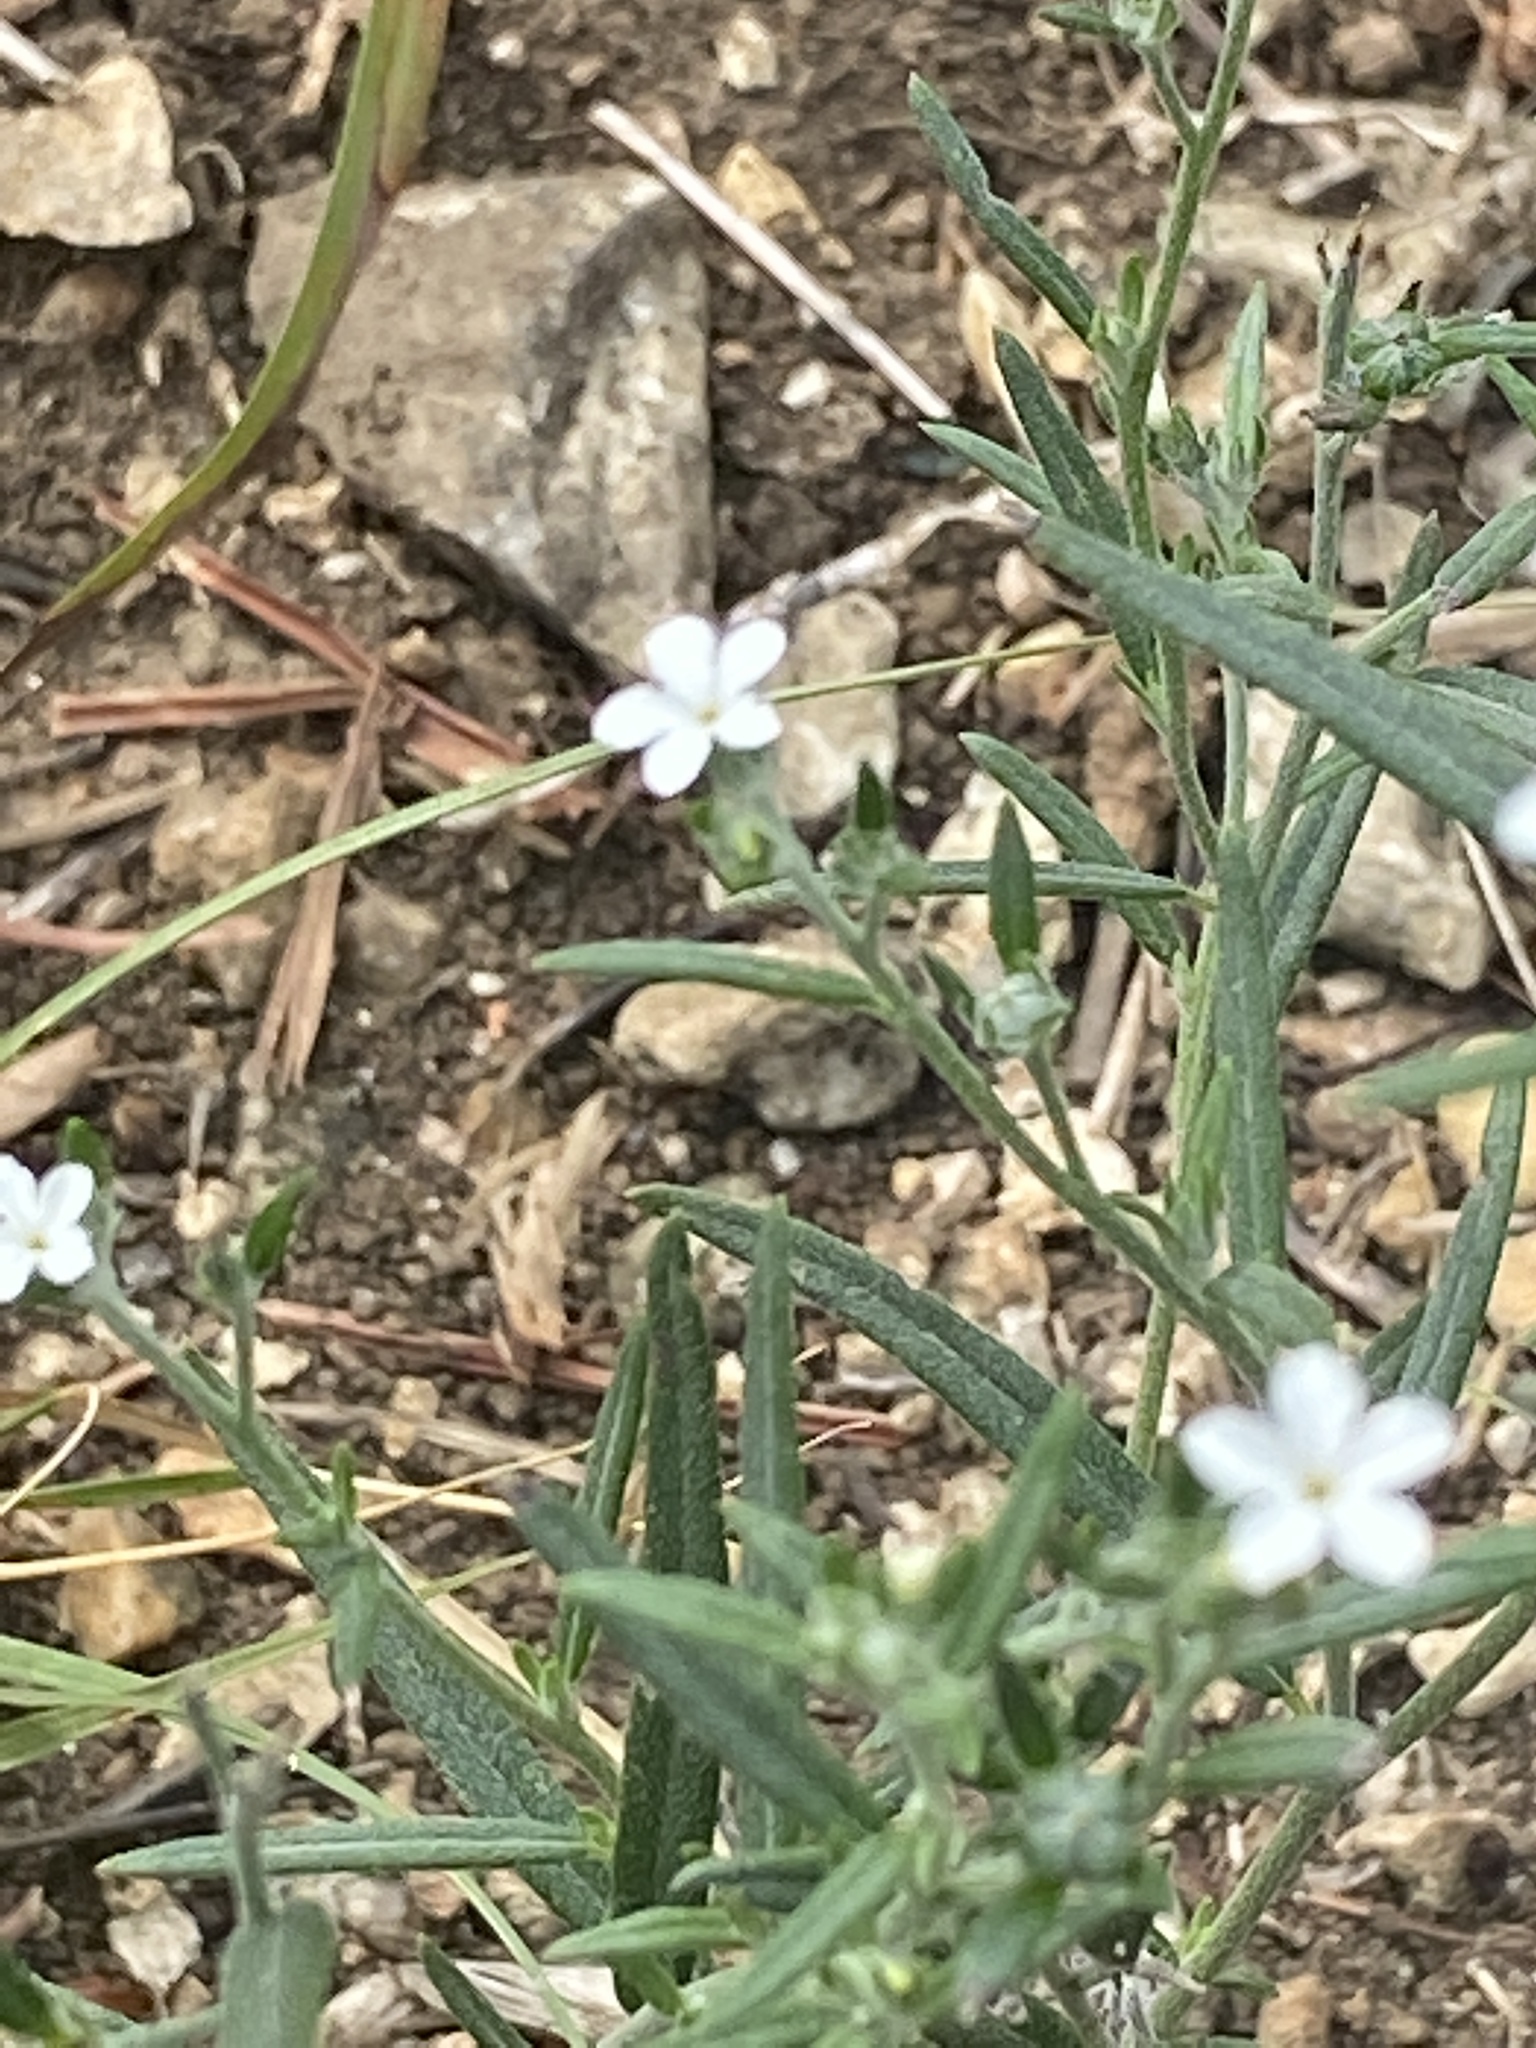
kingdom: Plantae
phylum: Tracheophyta
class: Magnoliopsida
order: Boraginales
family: Heliotropiaceae
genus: Euploca
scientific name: Euploca tenella
